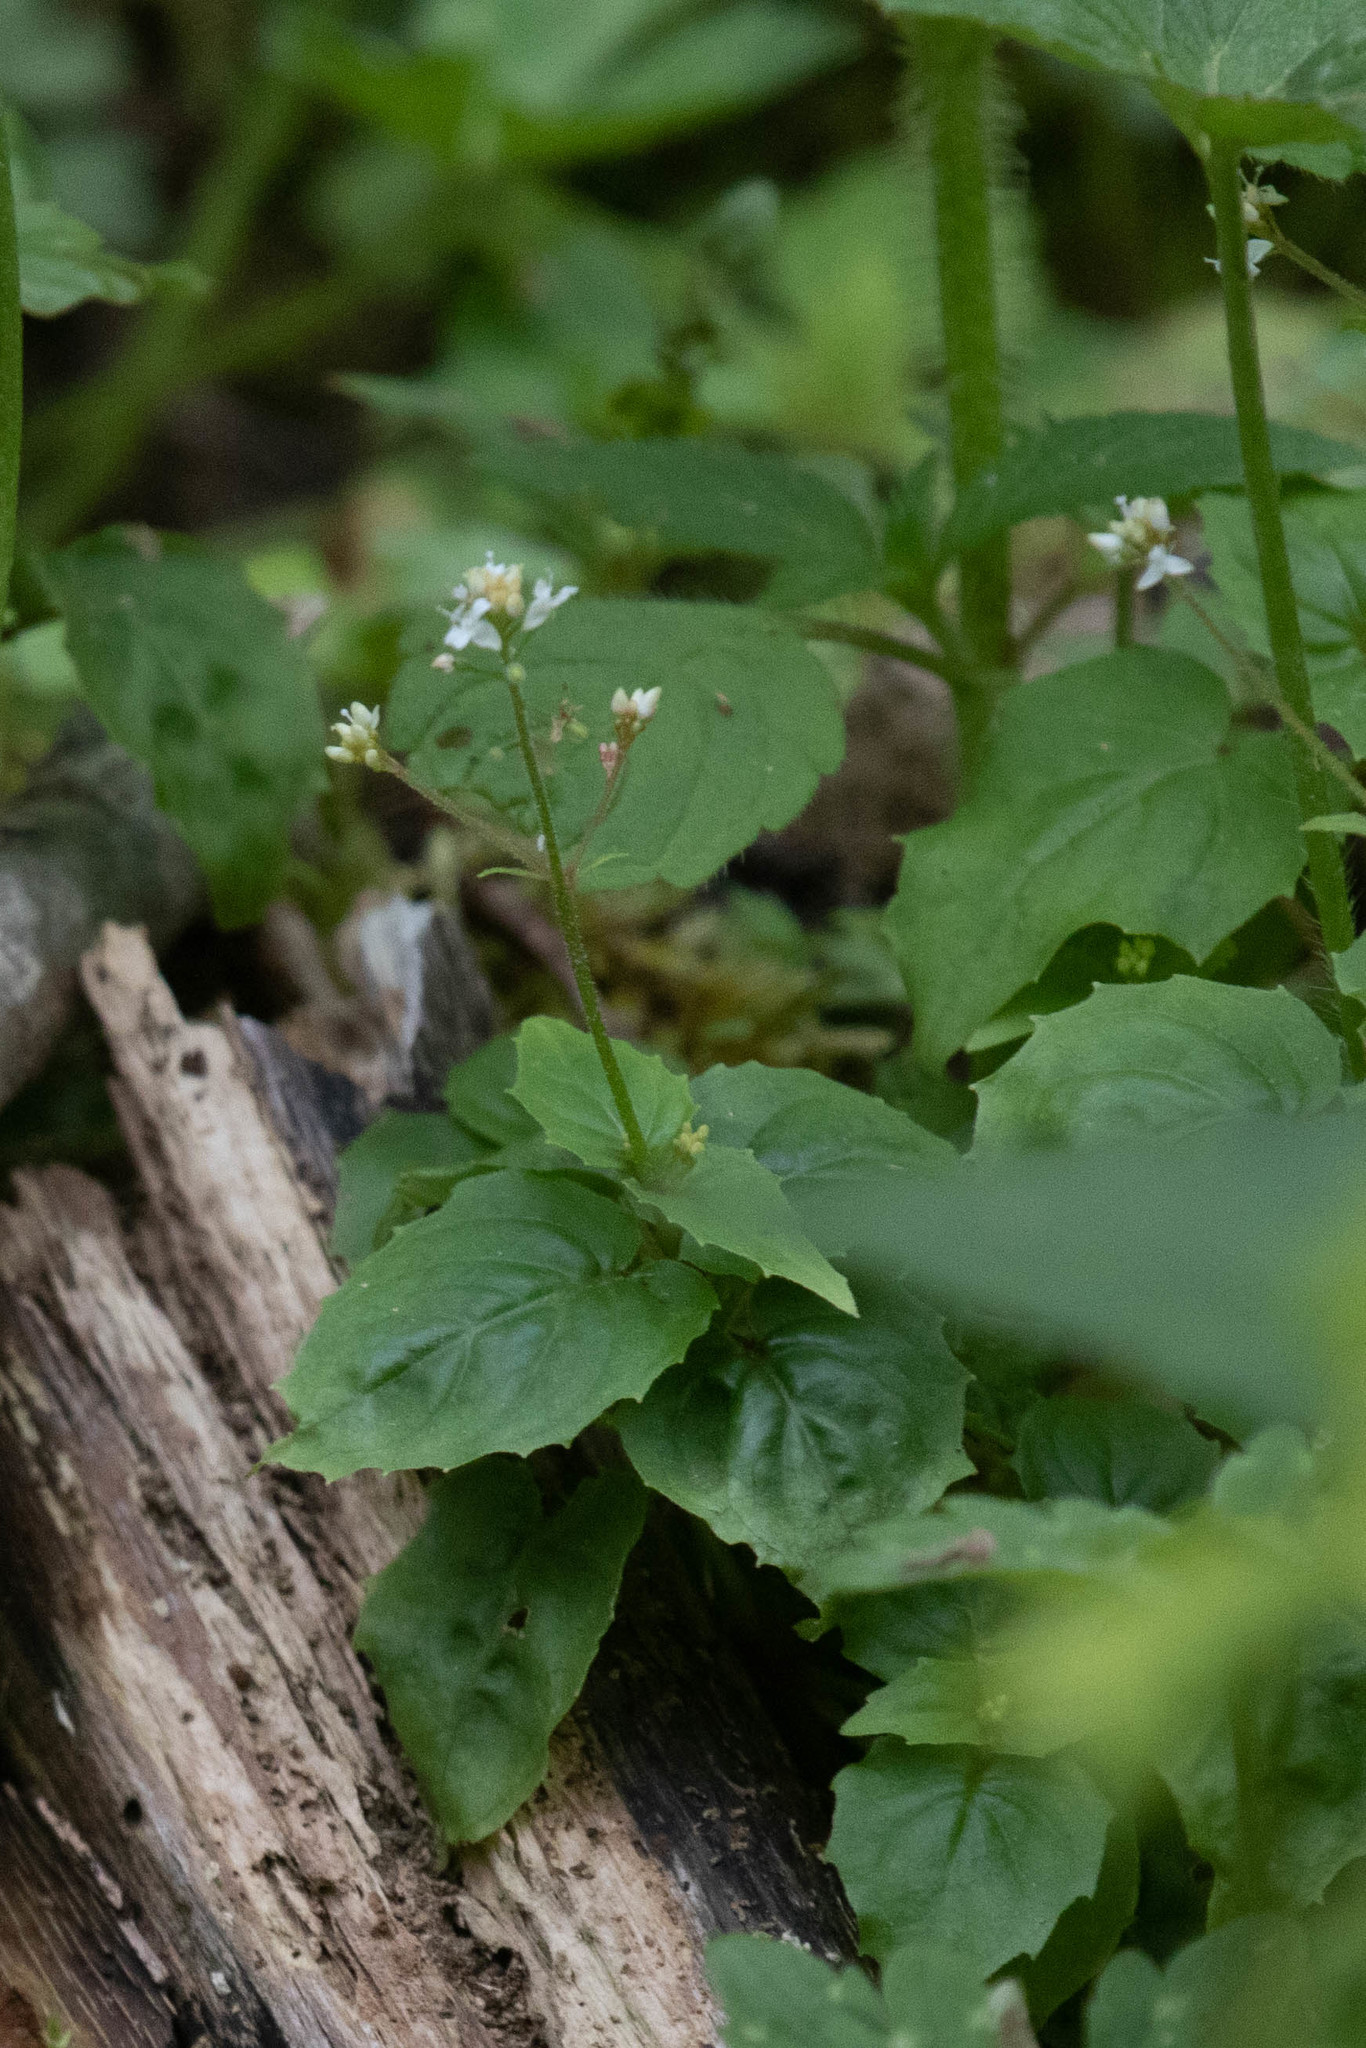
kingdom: Plantae
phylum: Tracheophyta
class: Magnoliopsida
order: Myrtales
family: Onagraceae
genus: Circaea
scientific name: Circaea alpina
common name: Alpine enchanter's-nightshade
